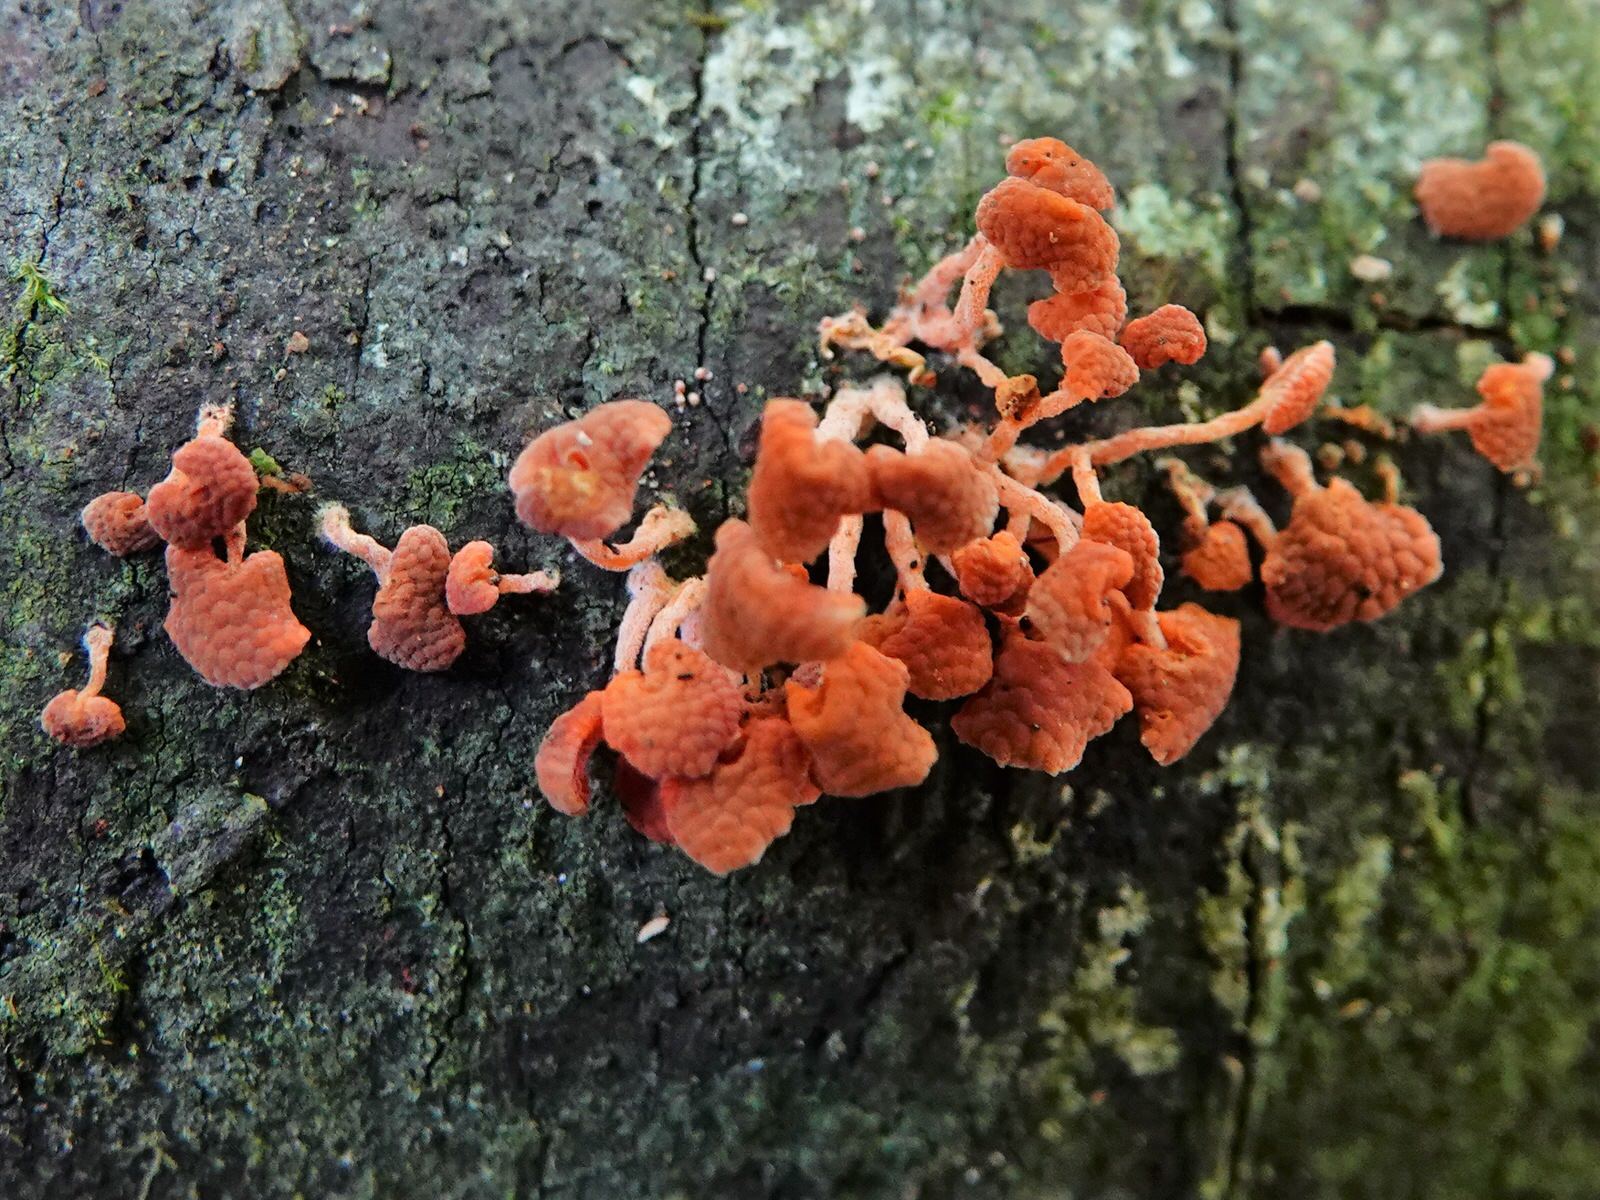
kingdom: Fungi
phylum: Basidiomycota
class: Agaricomycetes
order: Agaricales
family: Mycenaceae
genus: Favolaschia
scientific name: Favolaschia claudopus
